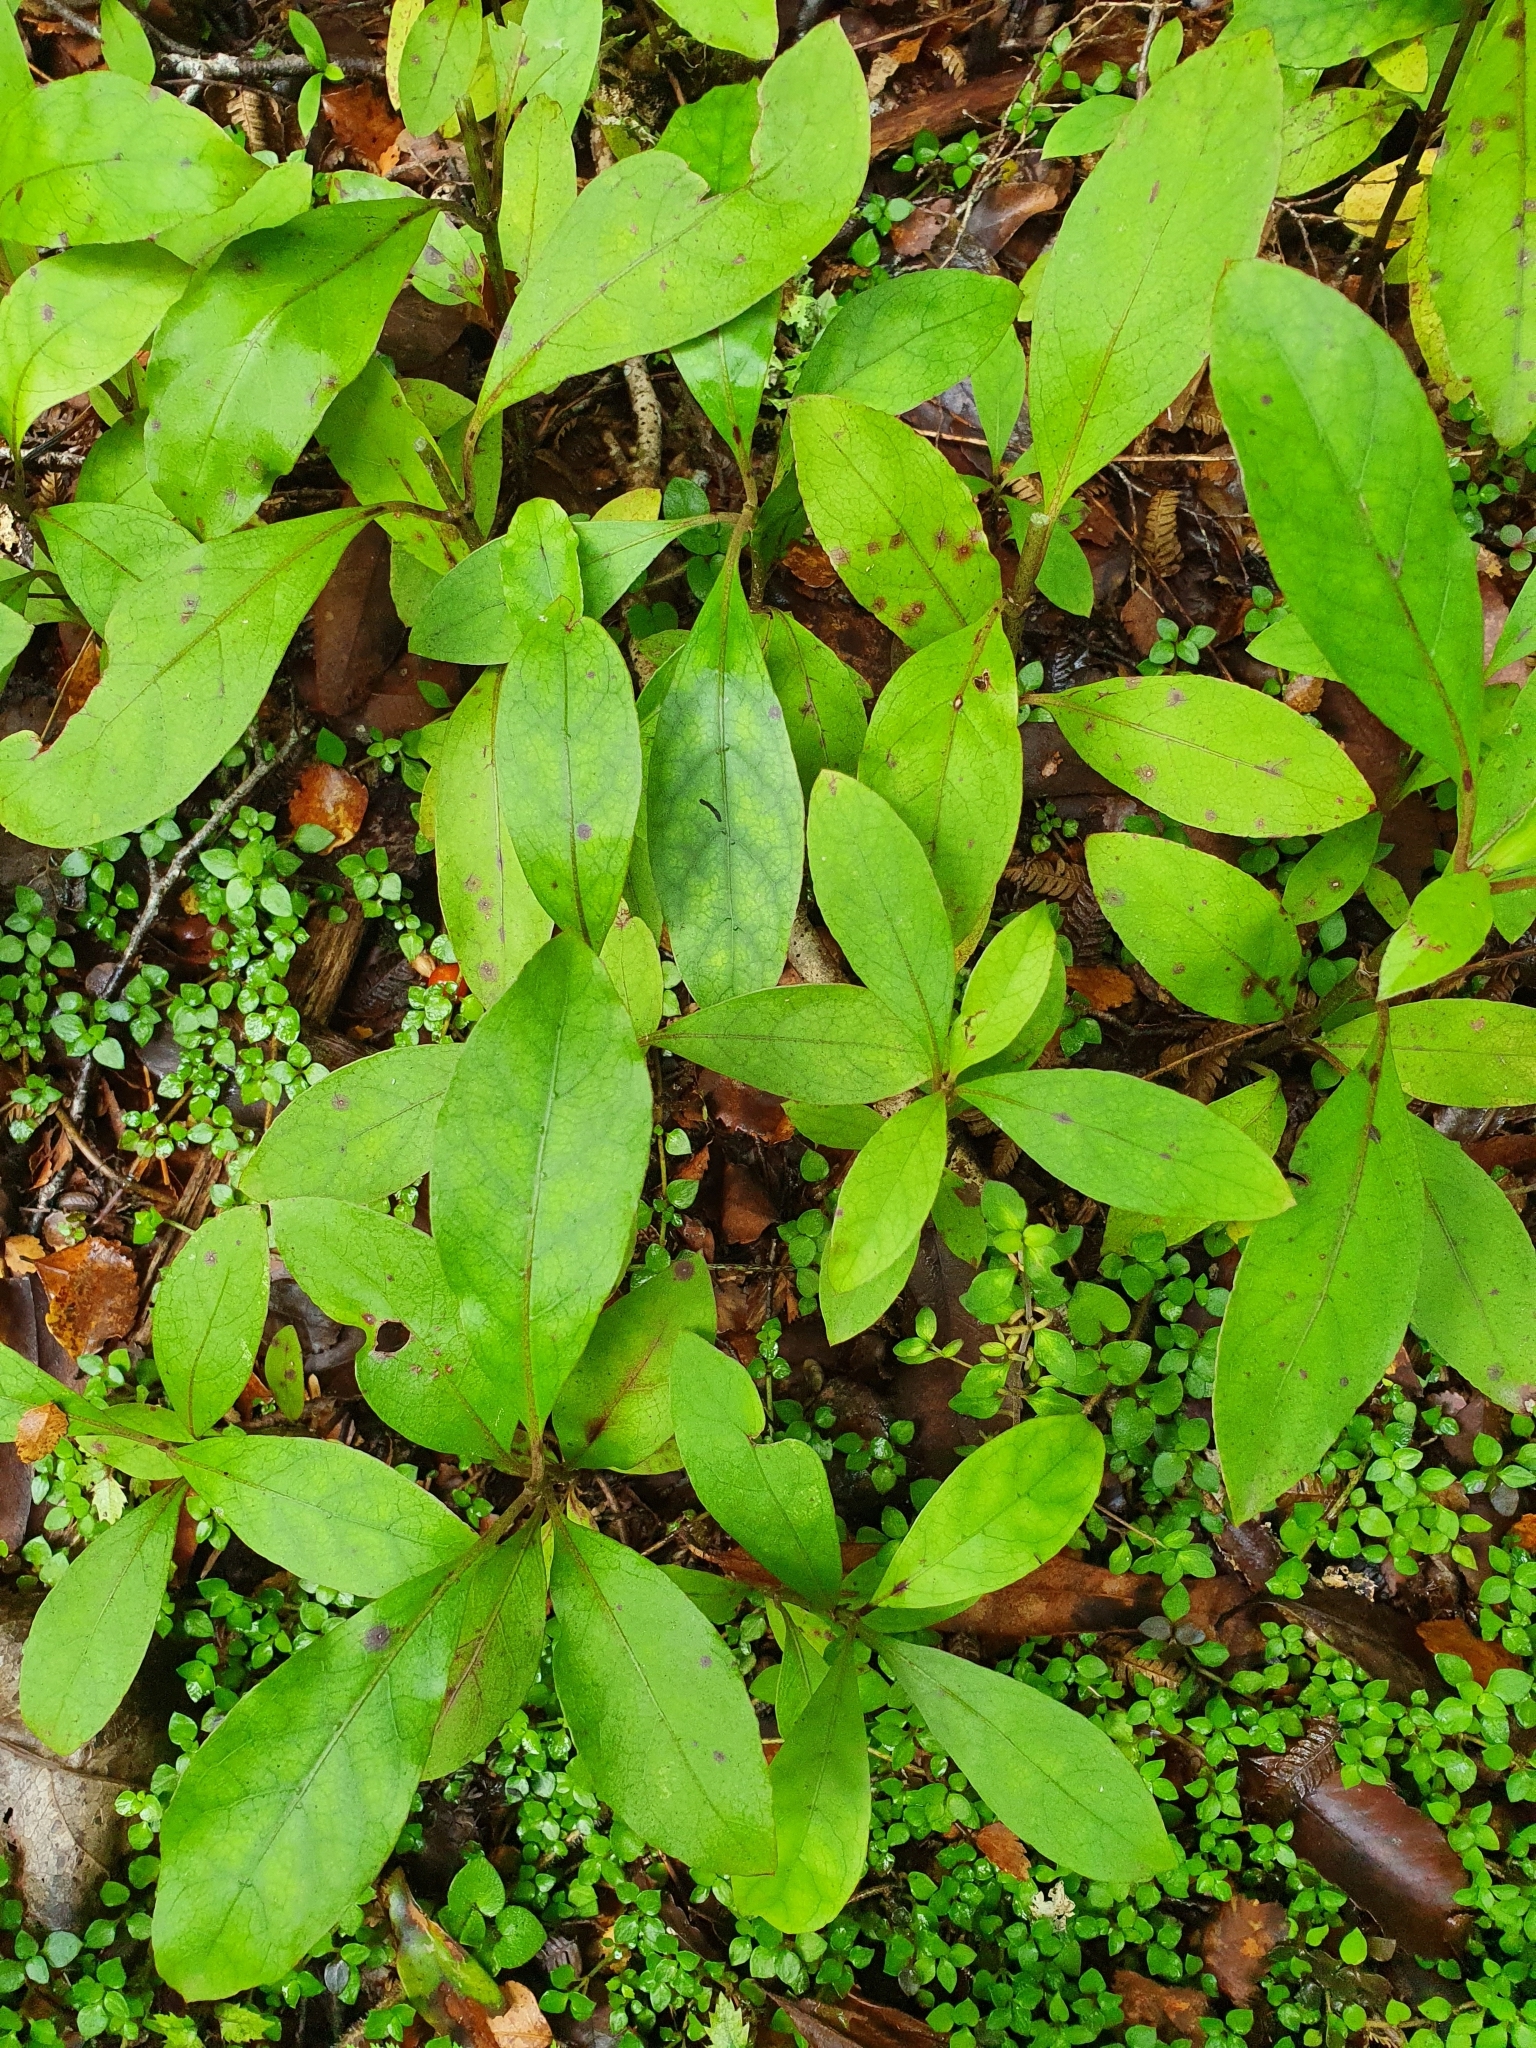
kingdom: Plantae
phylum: Tracheophyta
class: Magnoliopsida
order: Gentianales
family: Rubiaceae
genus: Coprosma
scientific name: Coprosma autumnalis
